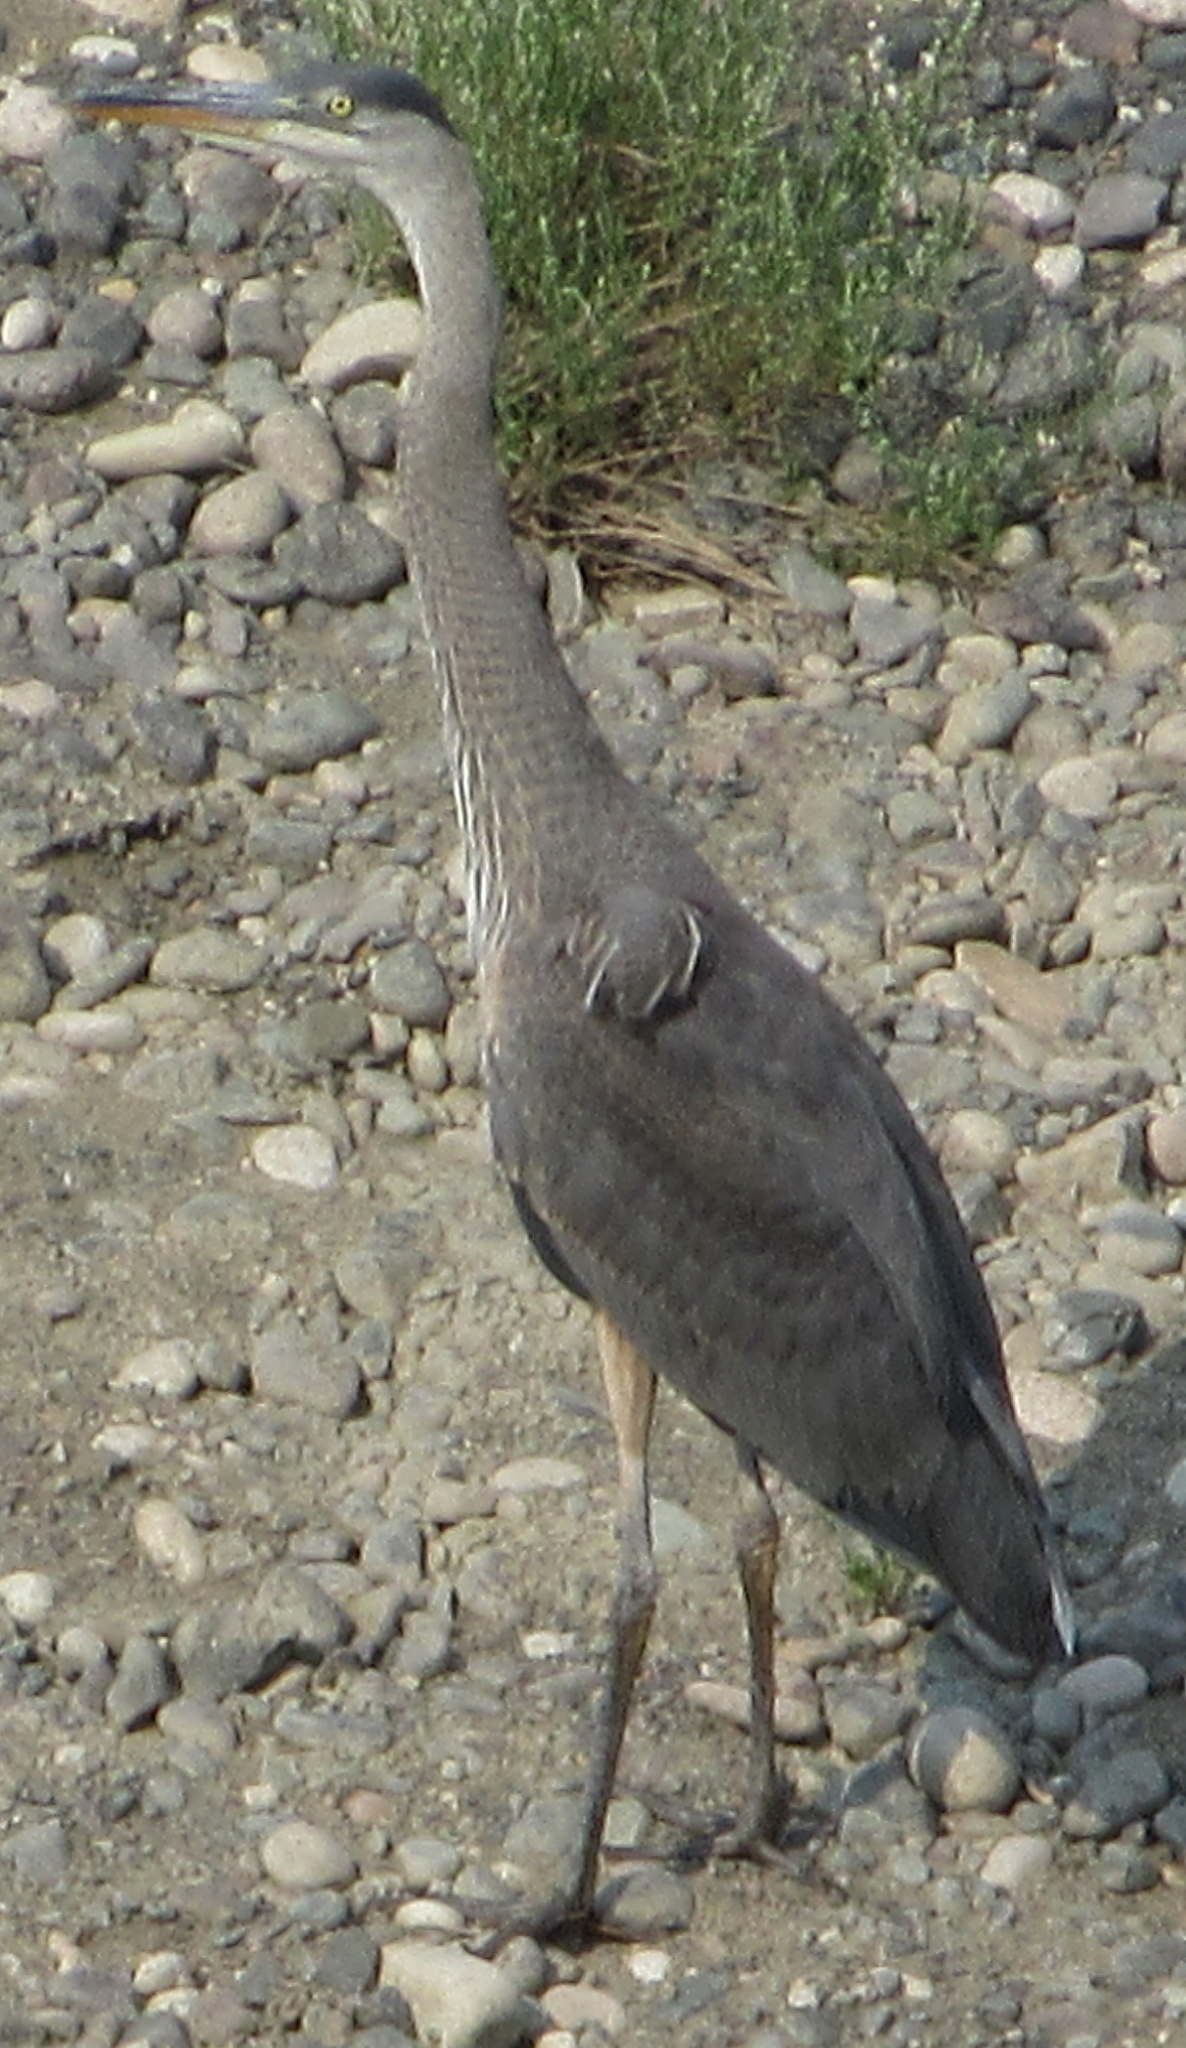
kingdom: Animalia
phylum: Chordata
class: Aves
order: Pelecaniformes
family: Ardeidae
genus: Ardea
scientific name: Ardea herodias
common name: Great blue heron
